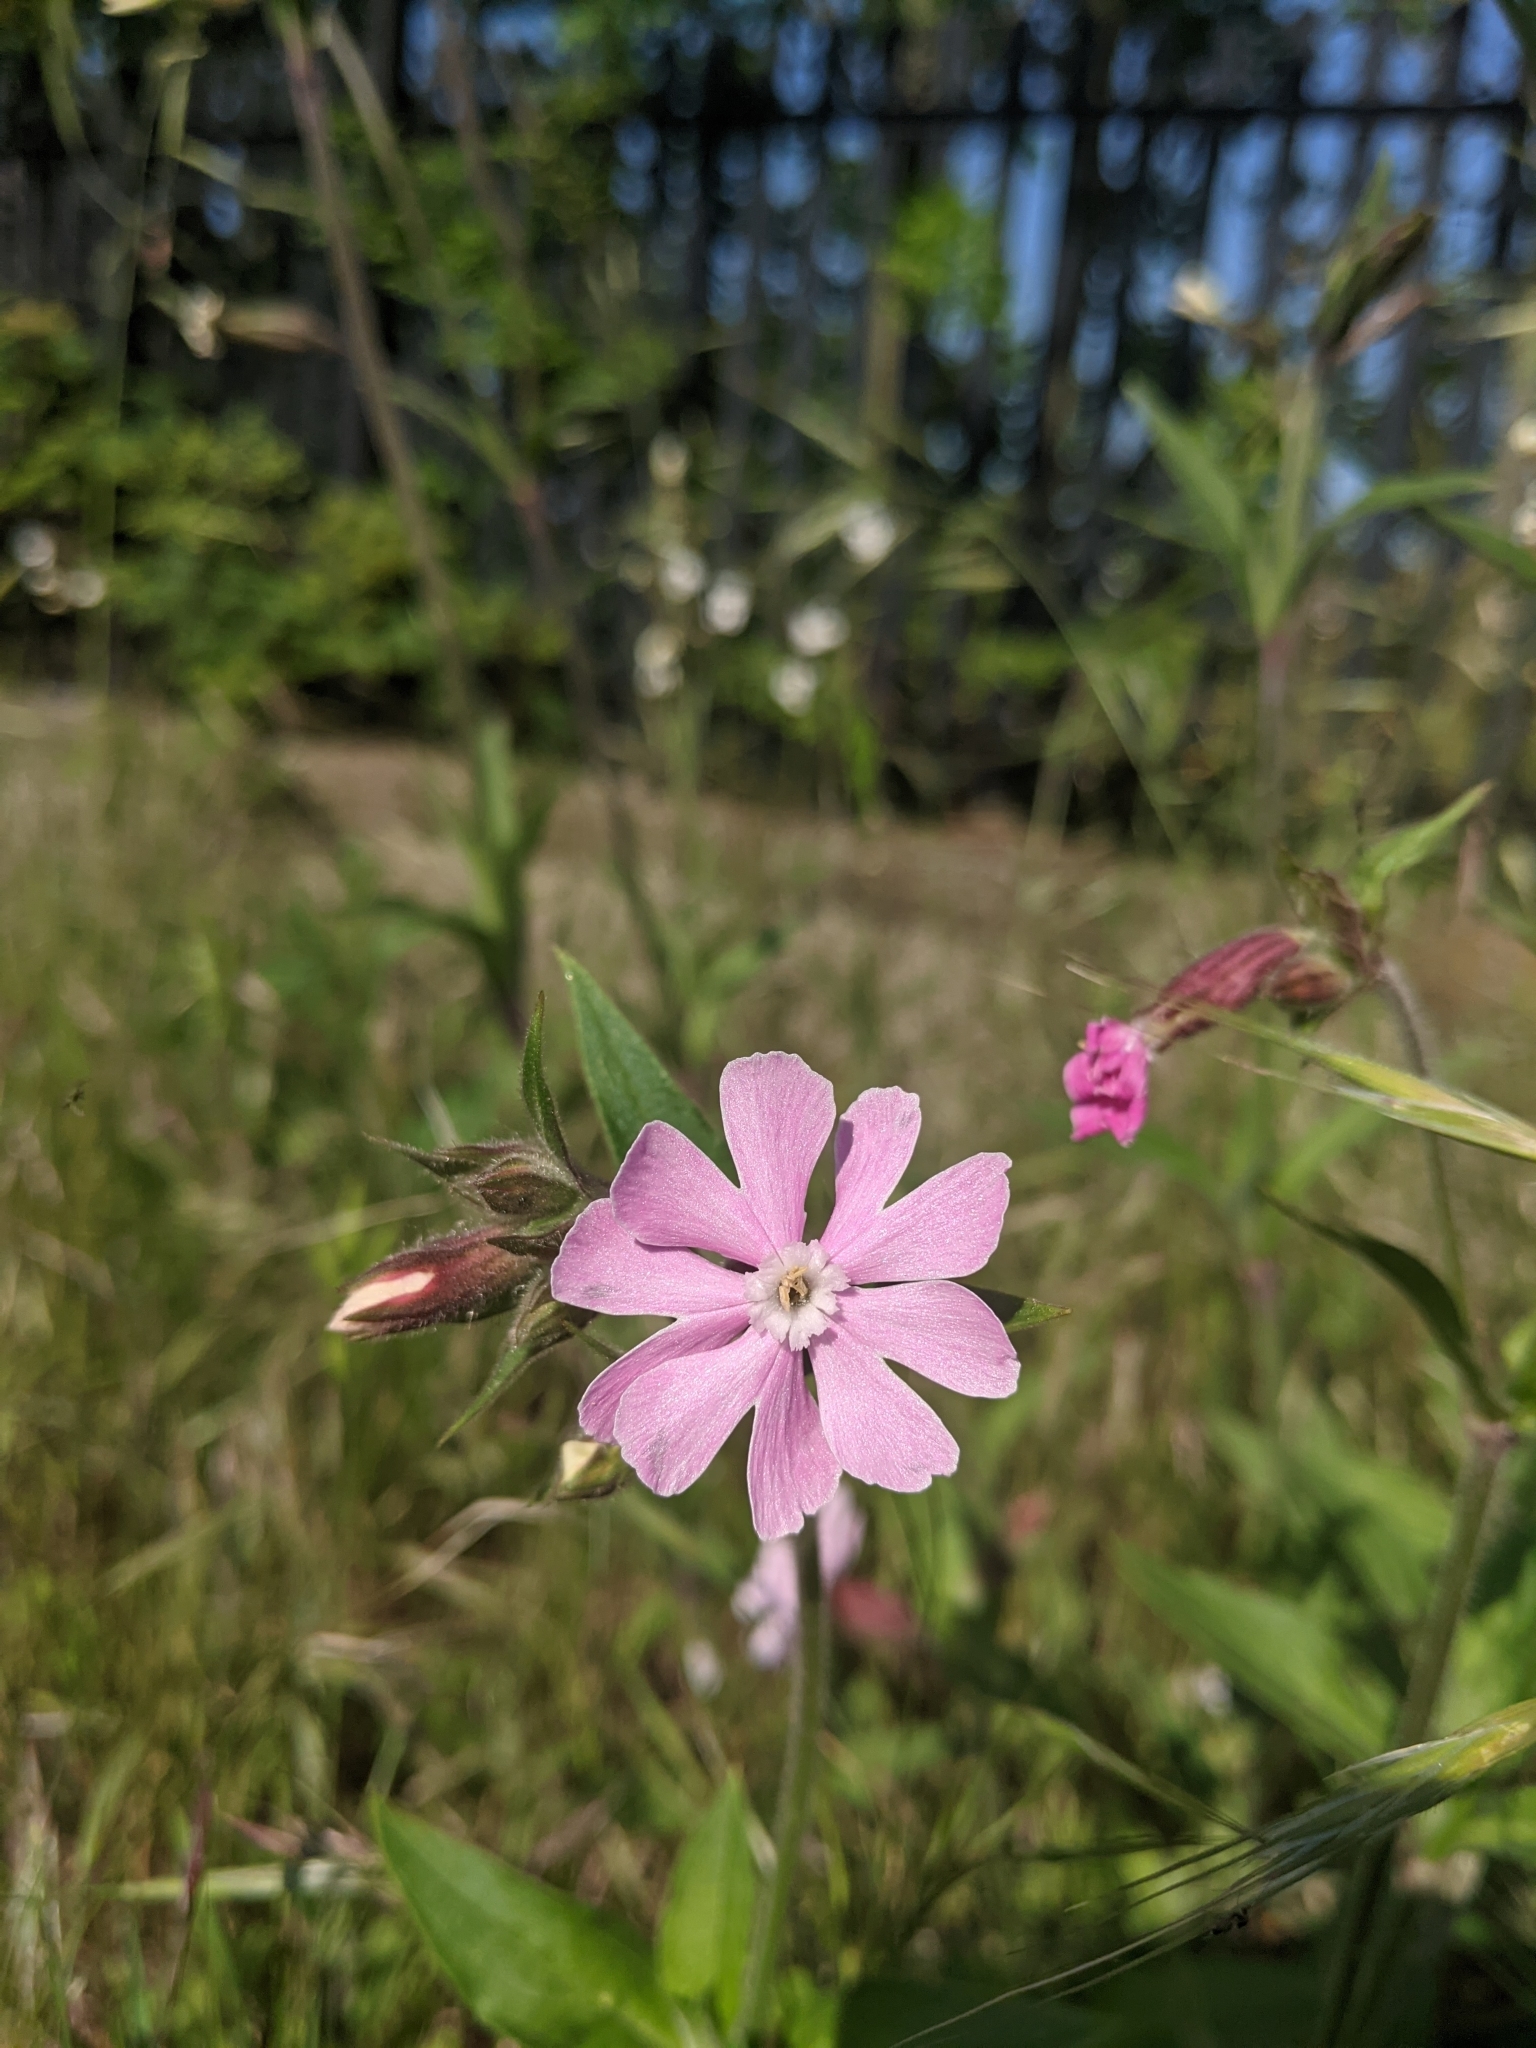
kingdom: Plantae
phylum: Tracheophyta
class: Magnoliopsida
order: Caryophyllales
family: Caryophyllaceae
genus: Silene
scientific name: Silene dioica
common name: Red campion
